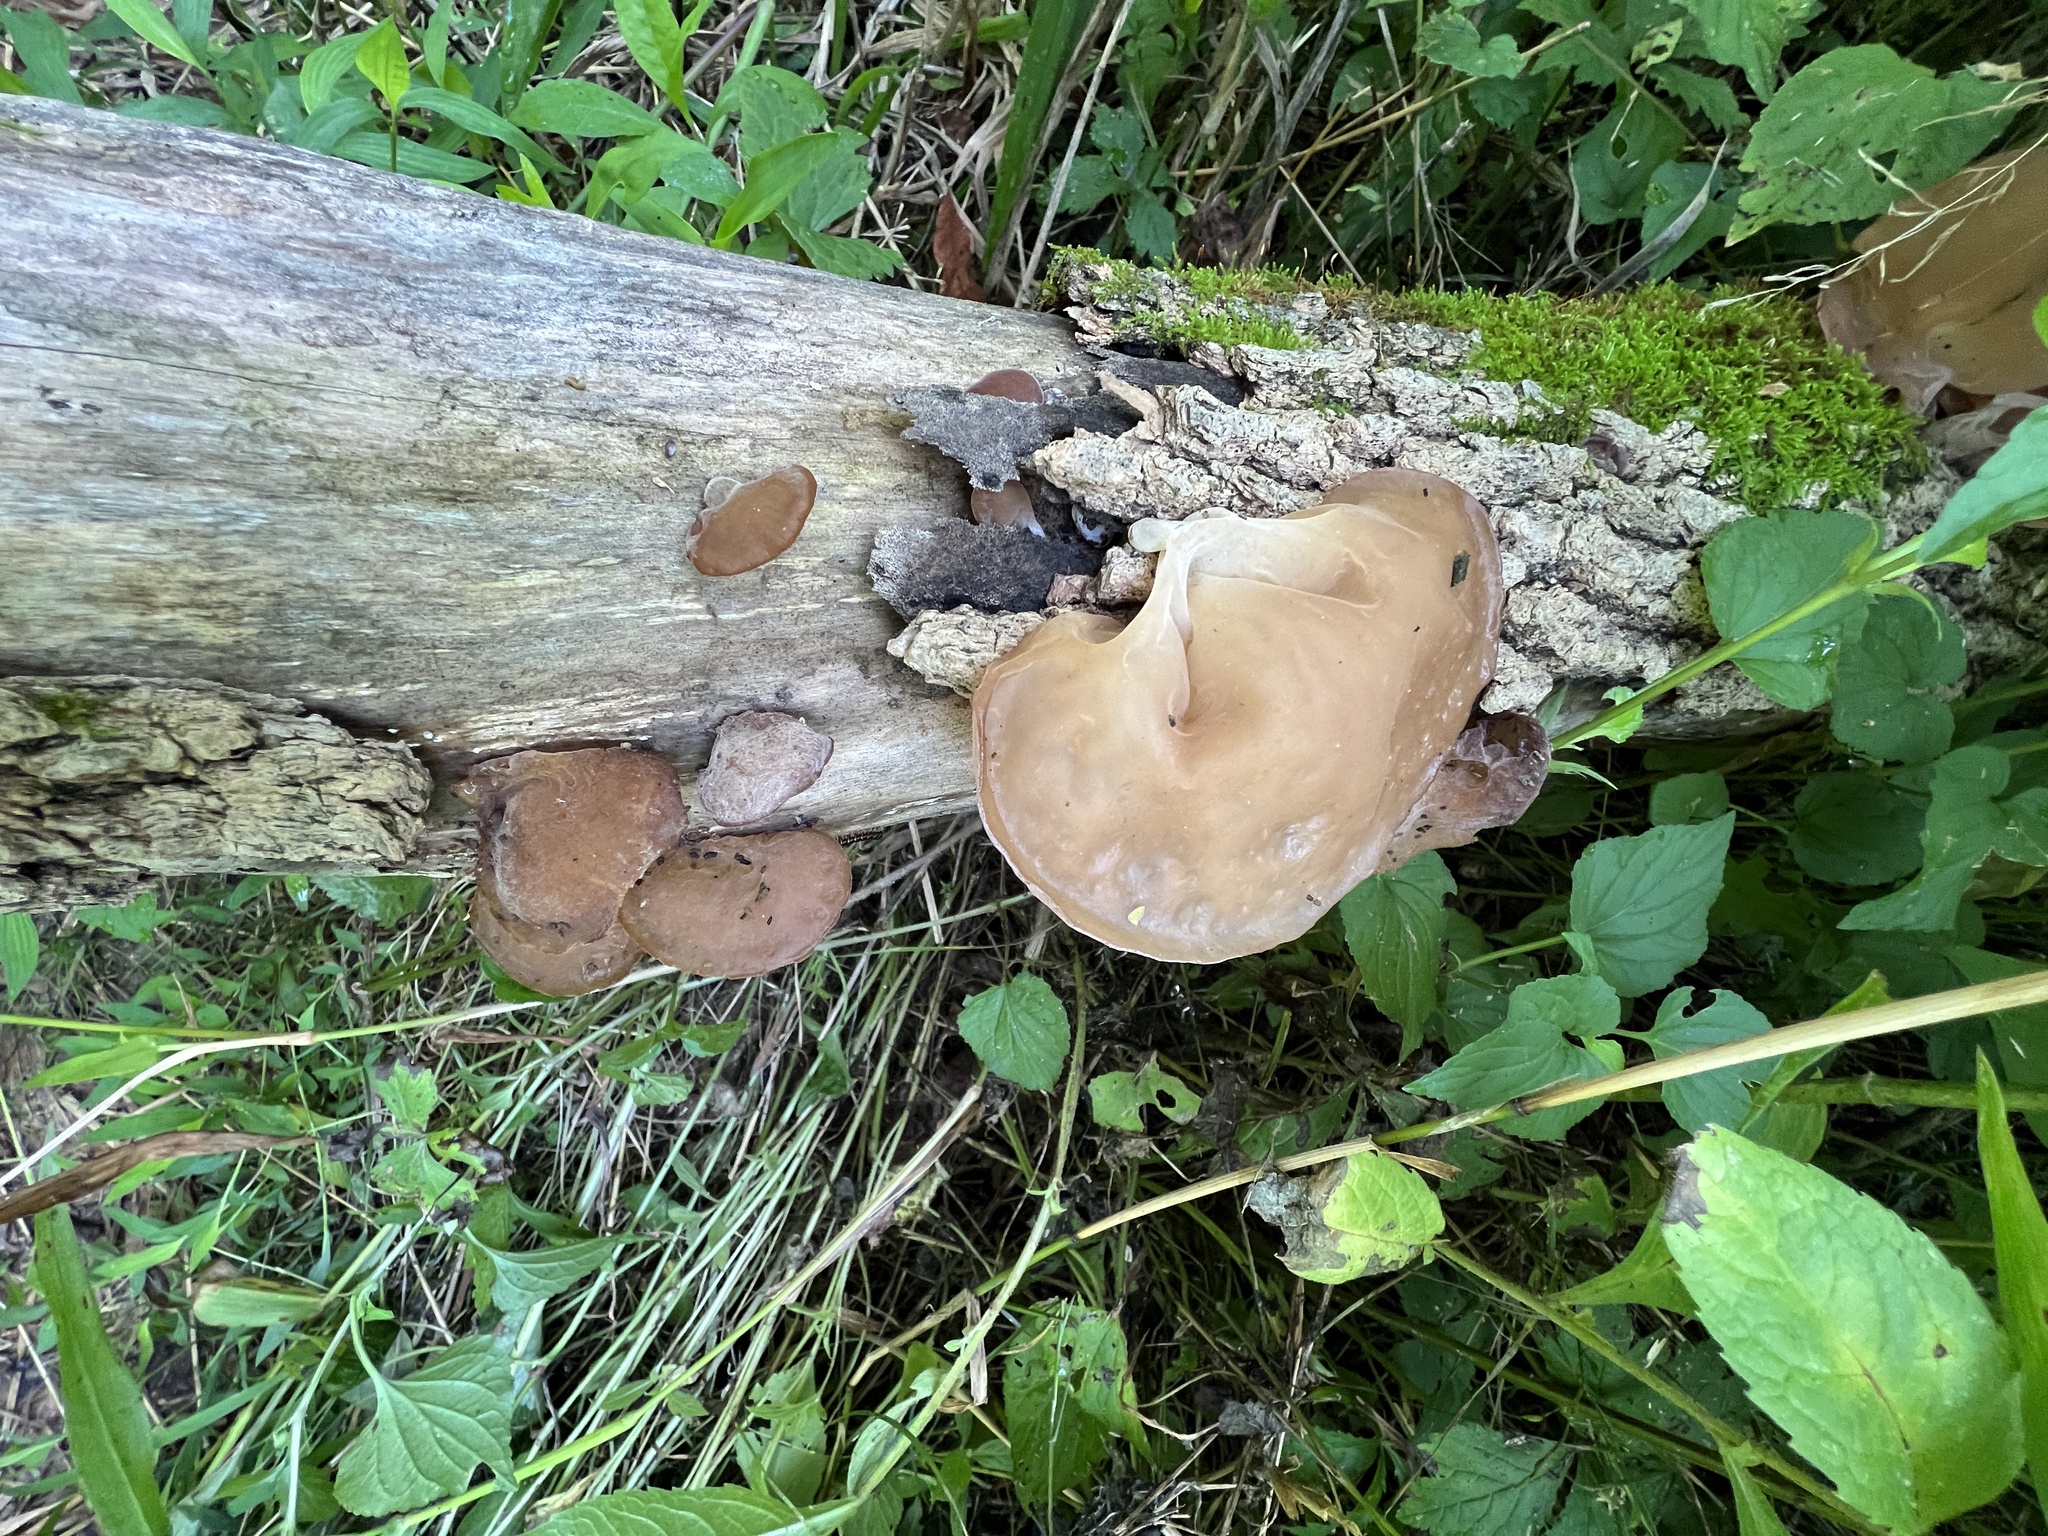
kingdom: Fungi
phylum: Basidiomycota
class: Agaricomycetes
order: Auriculariales
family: Auriculariaceae
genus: Auricularia
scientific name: Auricularia angiospermarum
